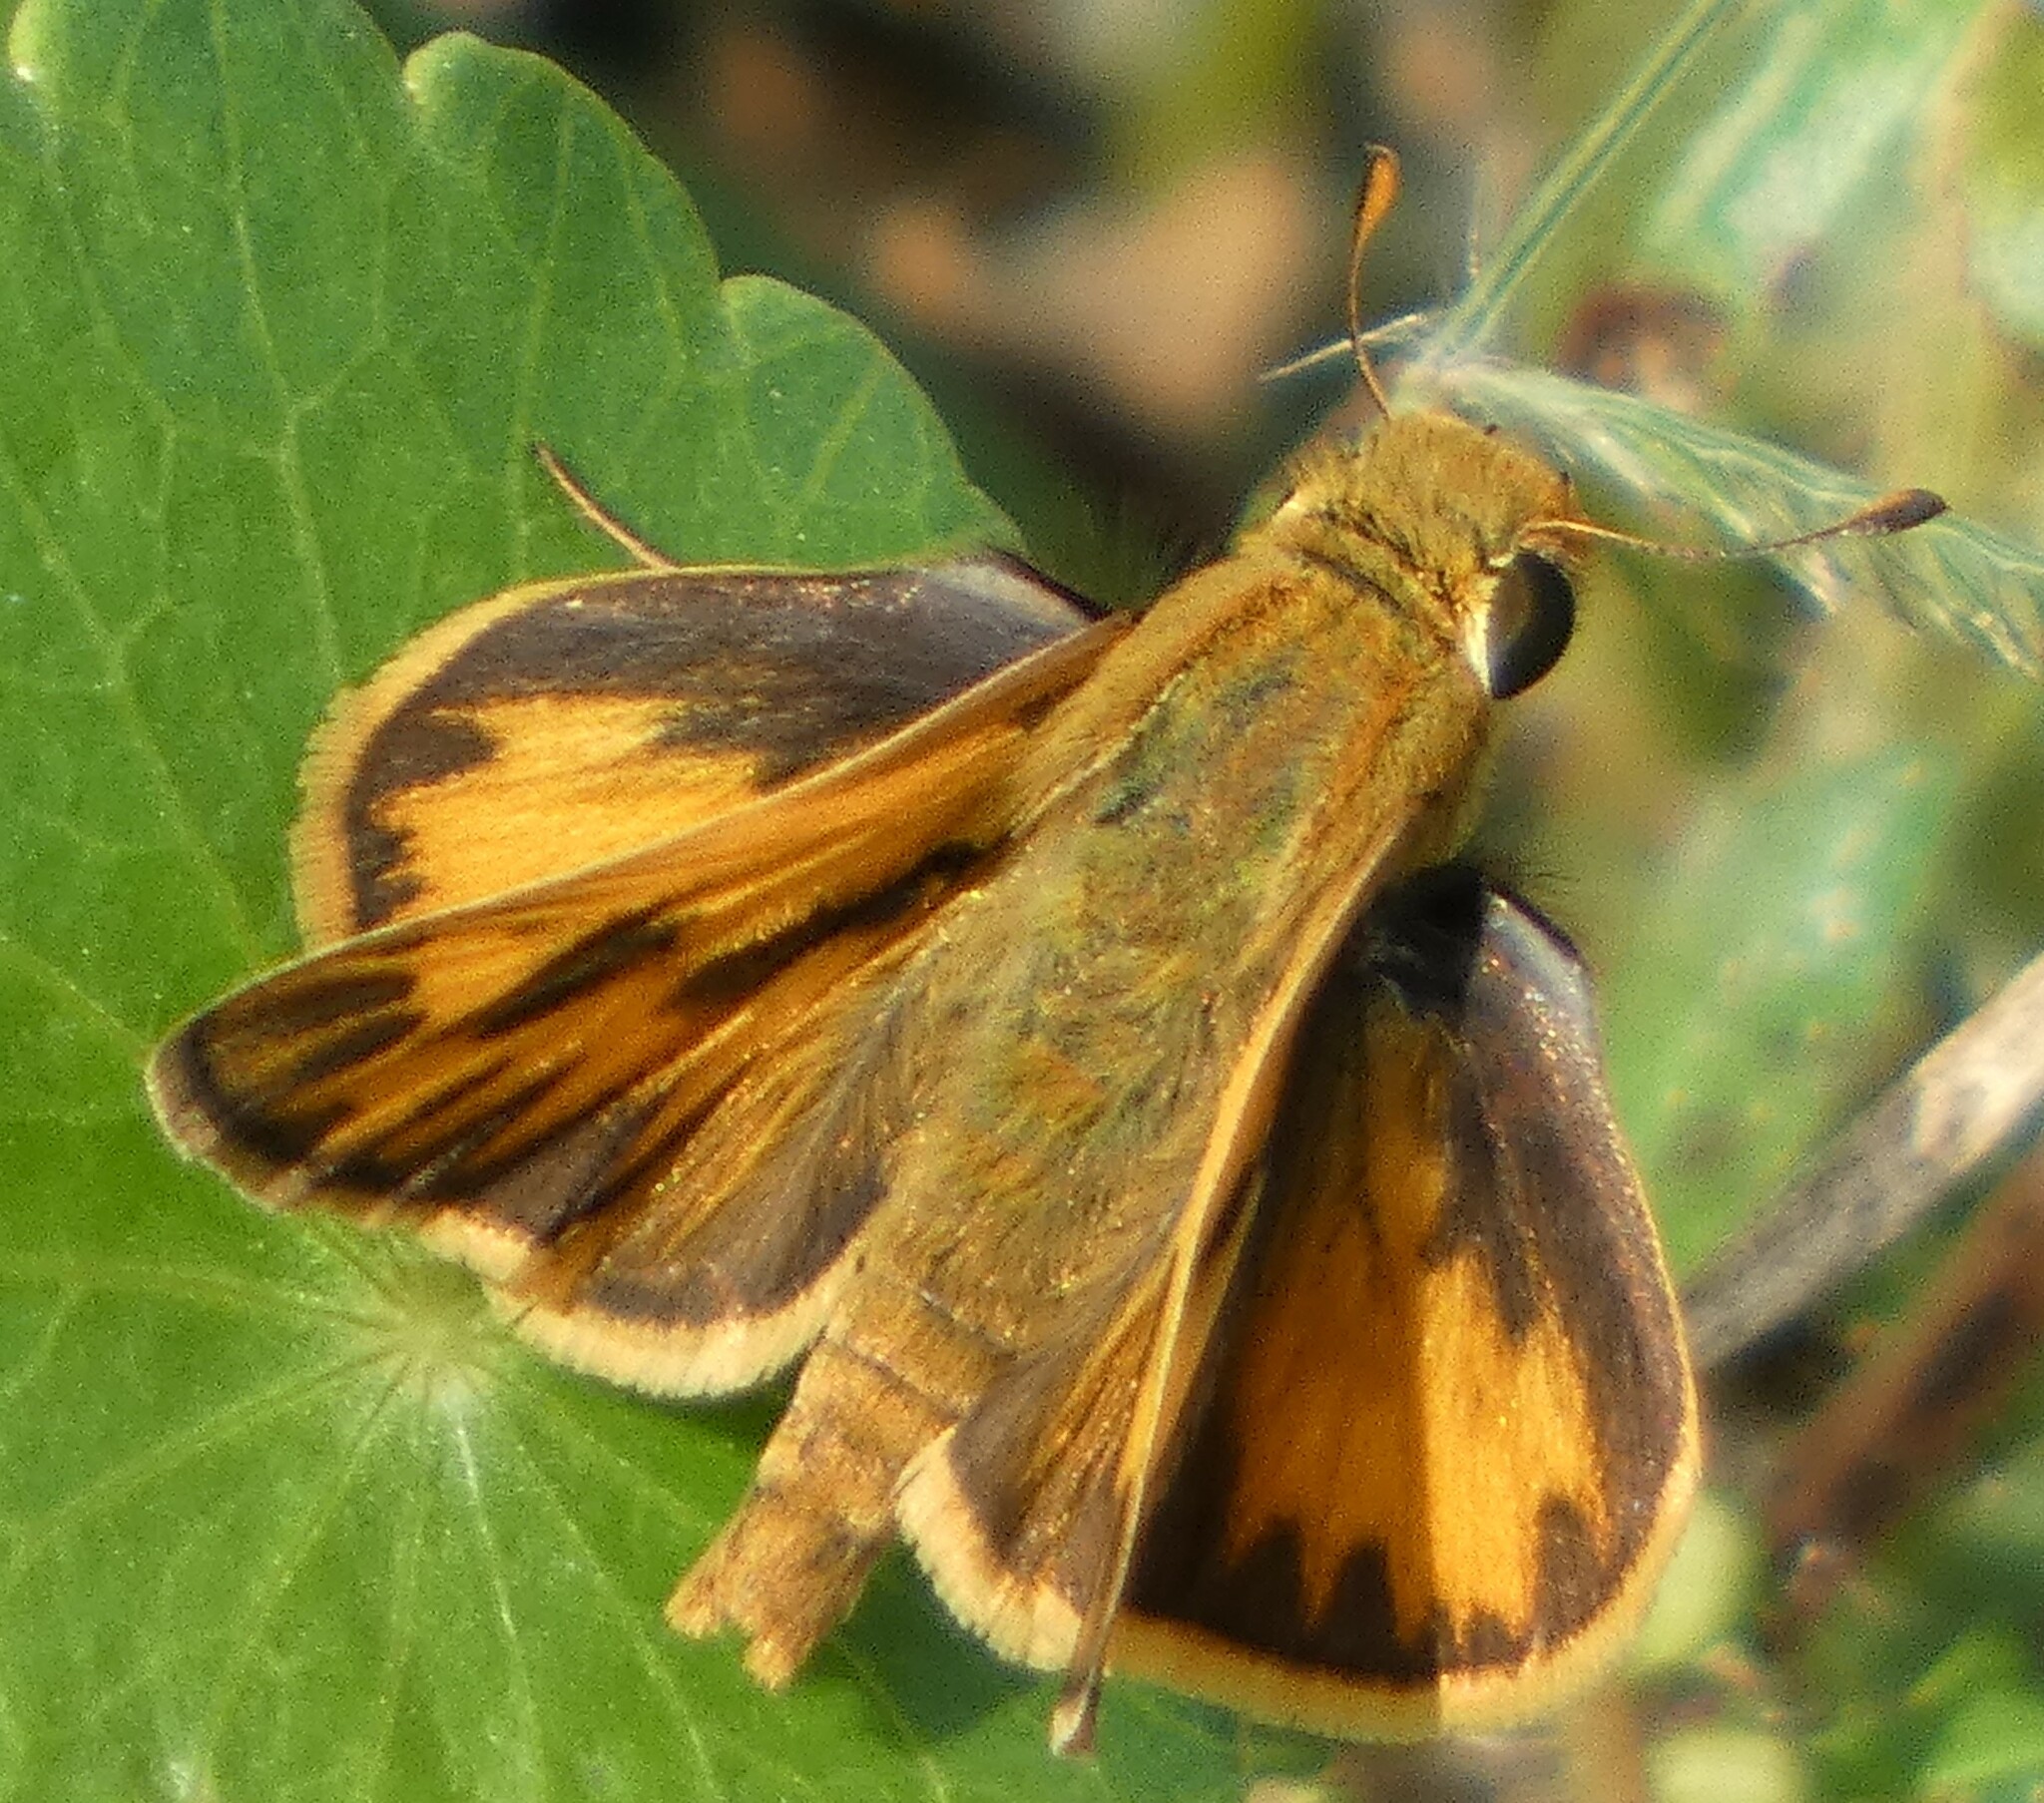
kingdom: Animalia
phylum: Arthropoda
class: Insecta
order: Lepidoptera
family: Hesperiidae
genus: Hylephila
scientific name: Hylephila phyleus
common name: Fiery skipper
